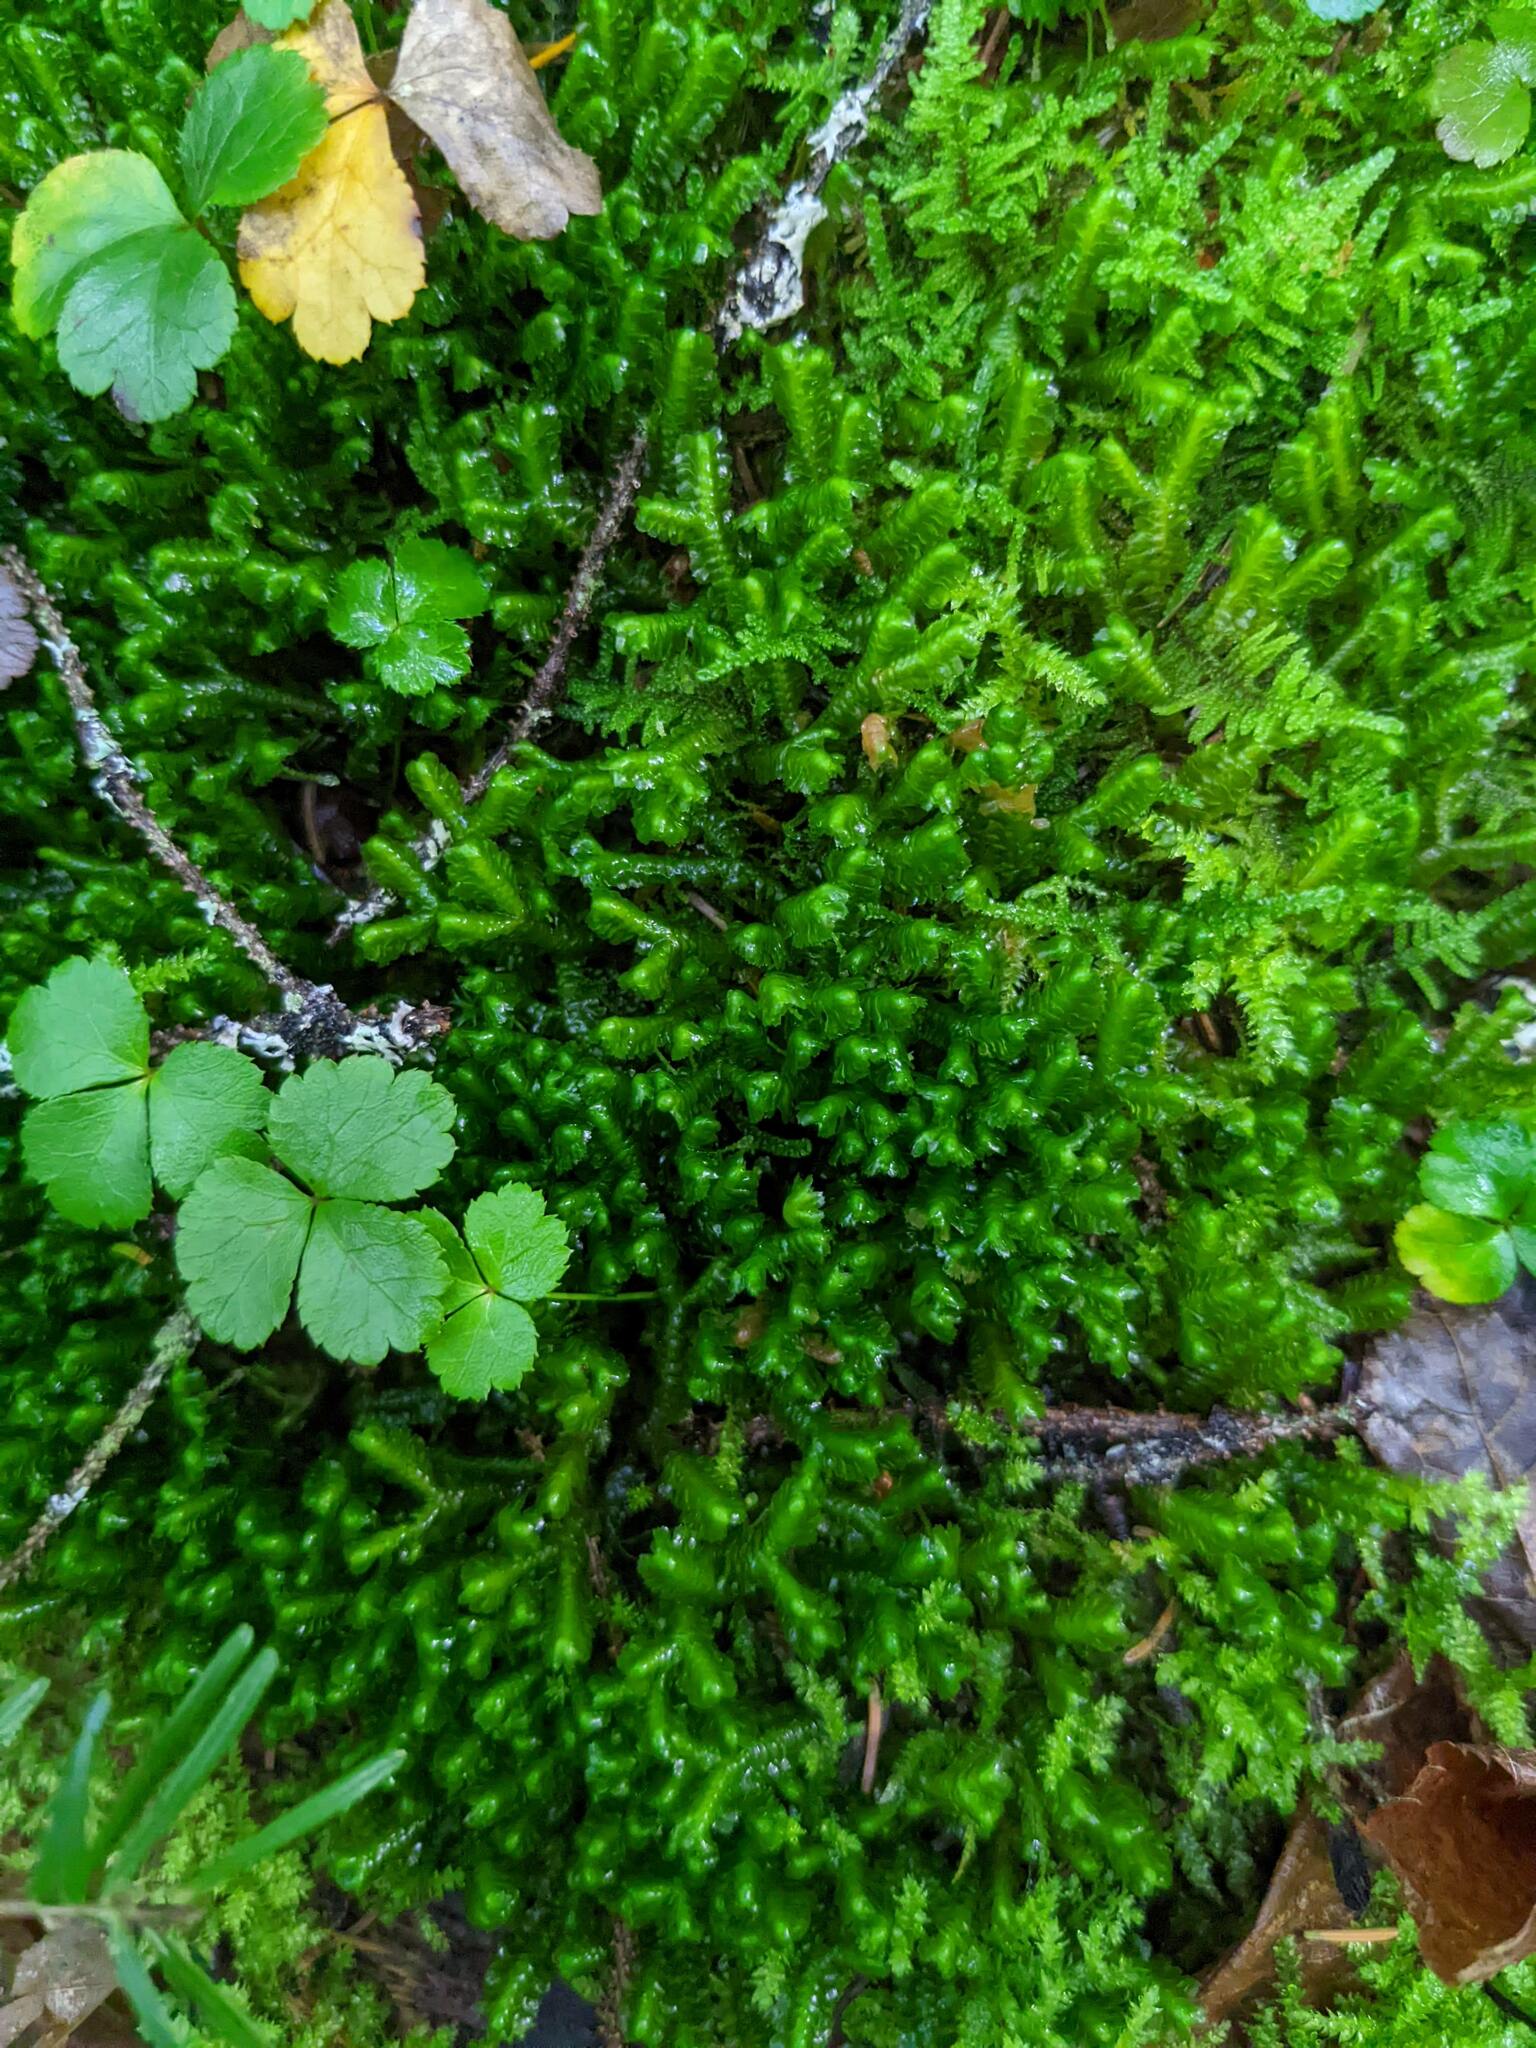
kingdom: Plantae
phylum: Tracheophyta
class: Magnoliopsida
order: Ranunculales
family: Ranunculaceae
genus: Coptis
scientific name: Coptis trifolia
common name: Canker-root
